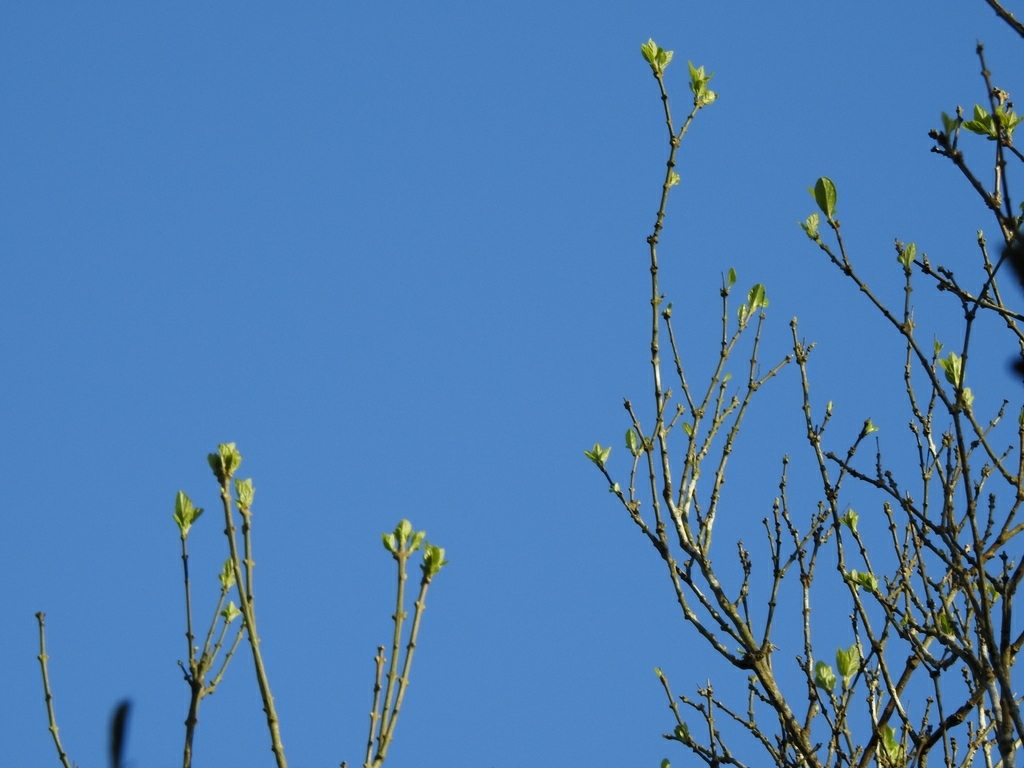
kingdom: Plantae
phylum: Tracheophyta
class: Magnoliopsida
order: Lamiales
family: Lamiaceae
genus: Premna
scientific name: Premna microphylla
